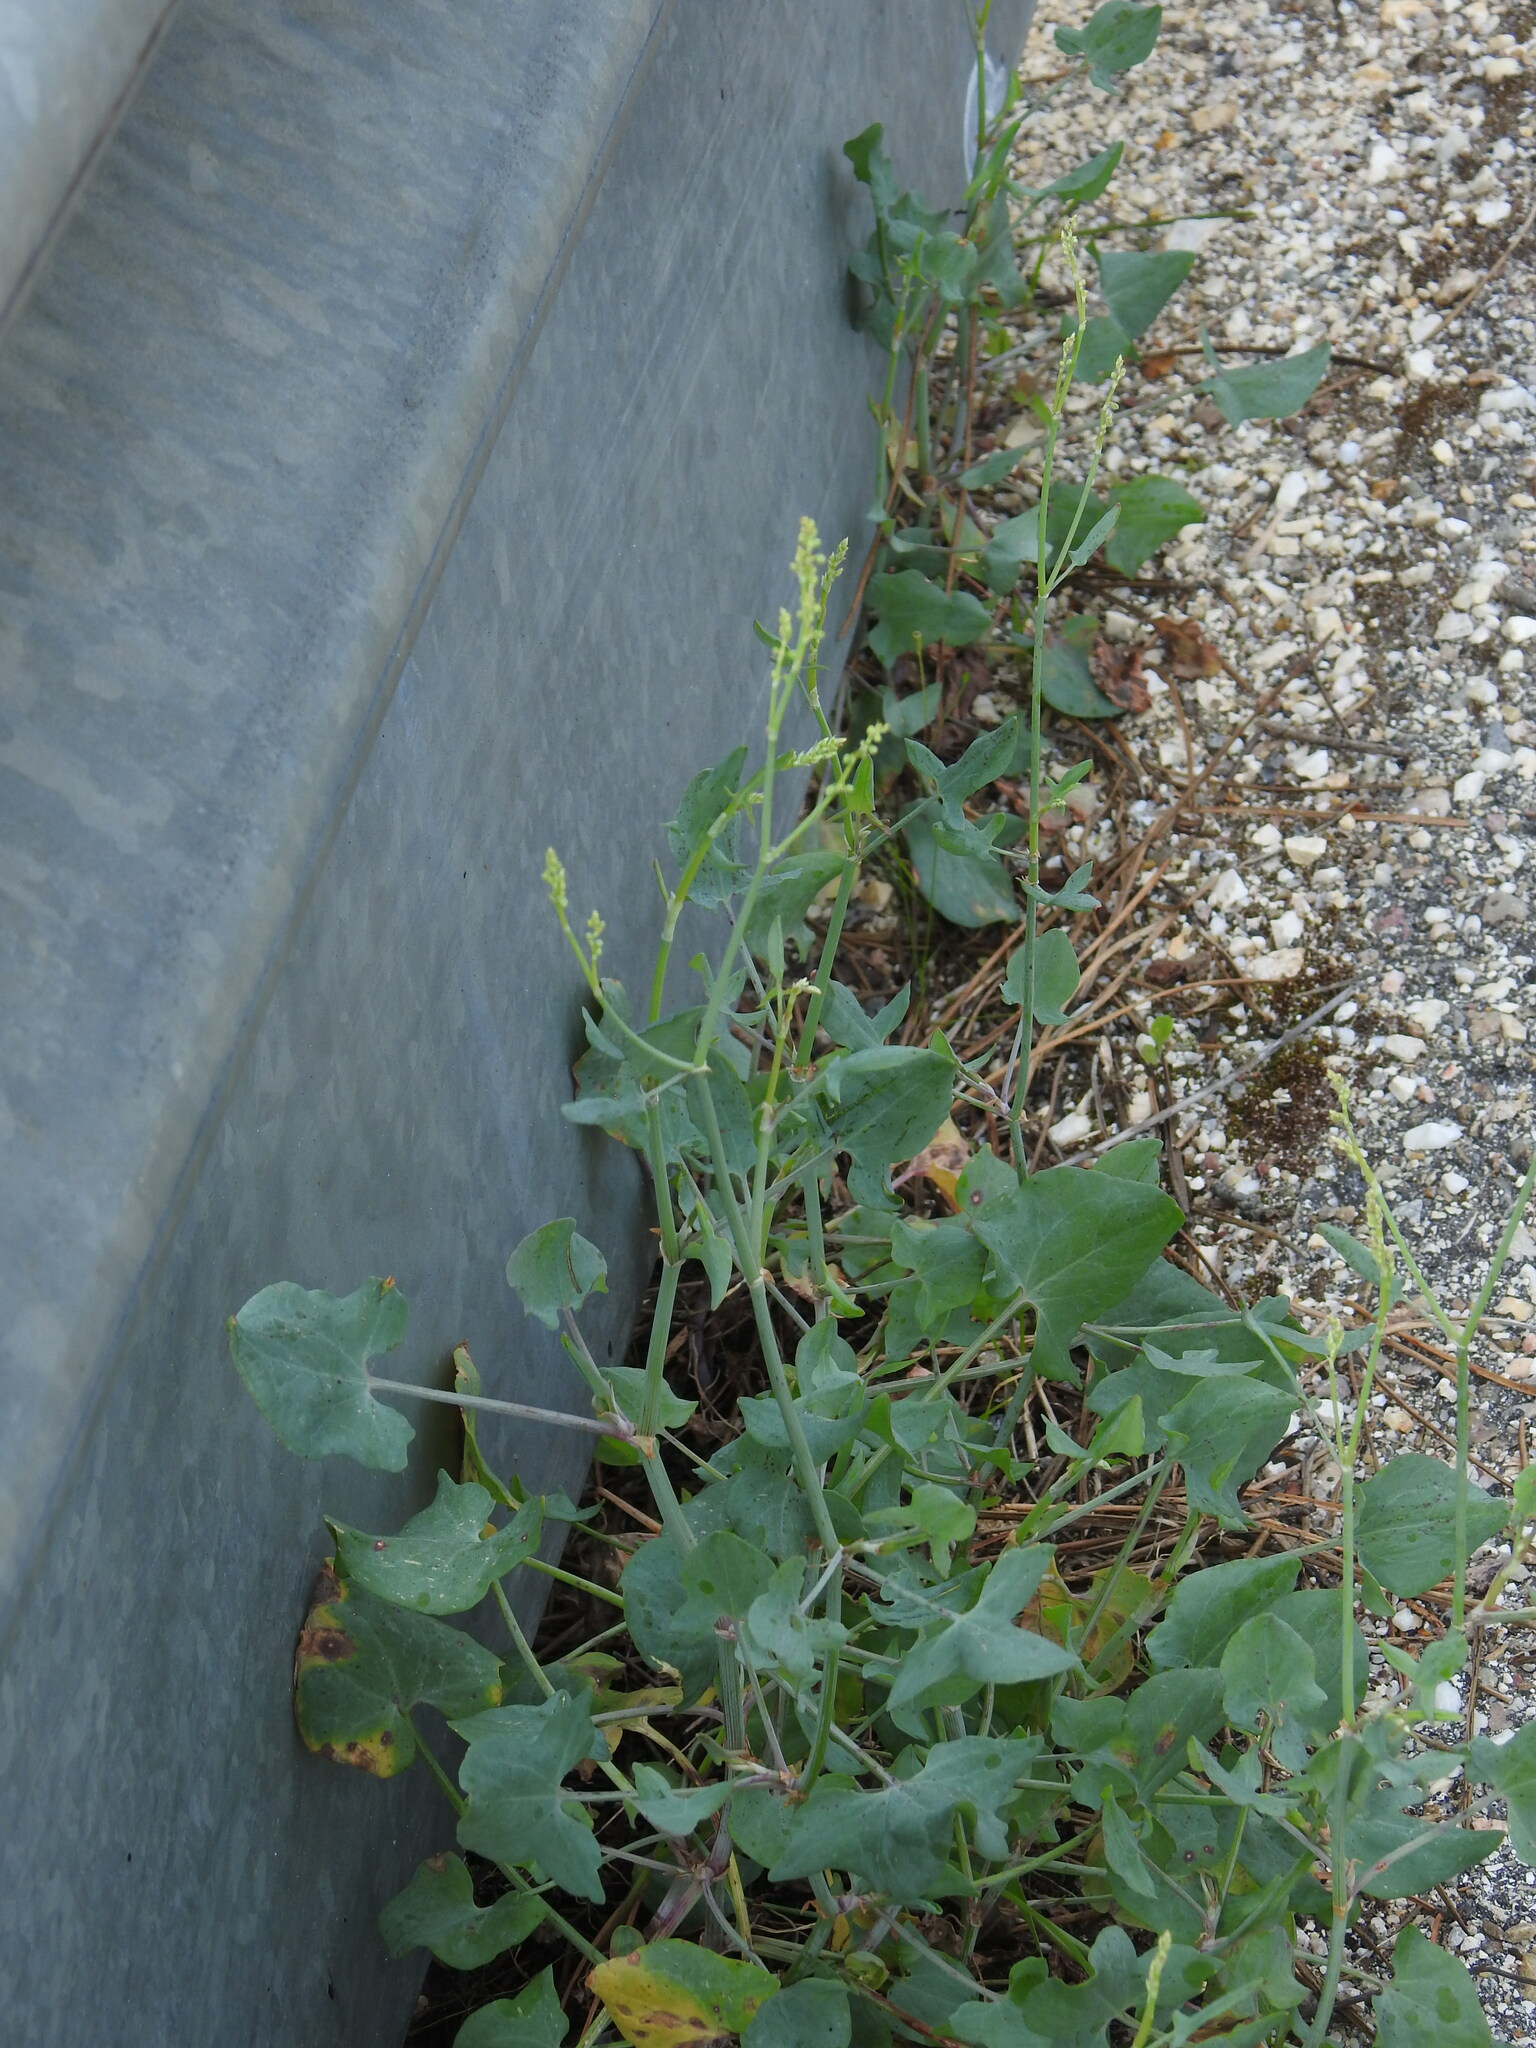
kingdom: Plantae
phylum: Tracheophyta
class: Magnoliopsida
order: Caryophyllales
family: Polygonaceae
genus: Rumex
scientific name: Rumex induratus
